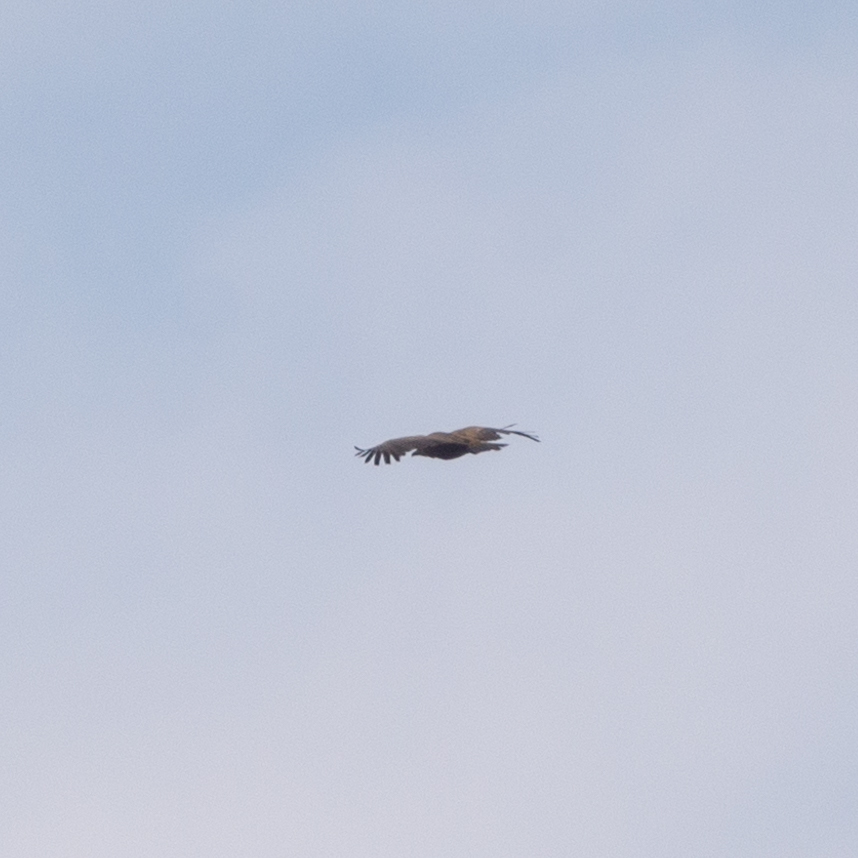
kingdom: Animalia
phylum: Chordata
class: Aves
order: Accipitriformes
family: Accipitridae
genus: Gyps
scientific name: Gyps fulvus
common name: Griffon vulture
